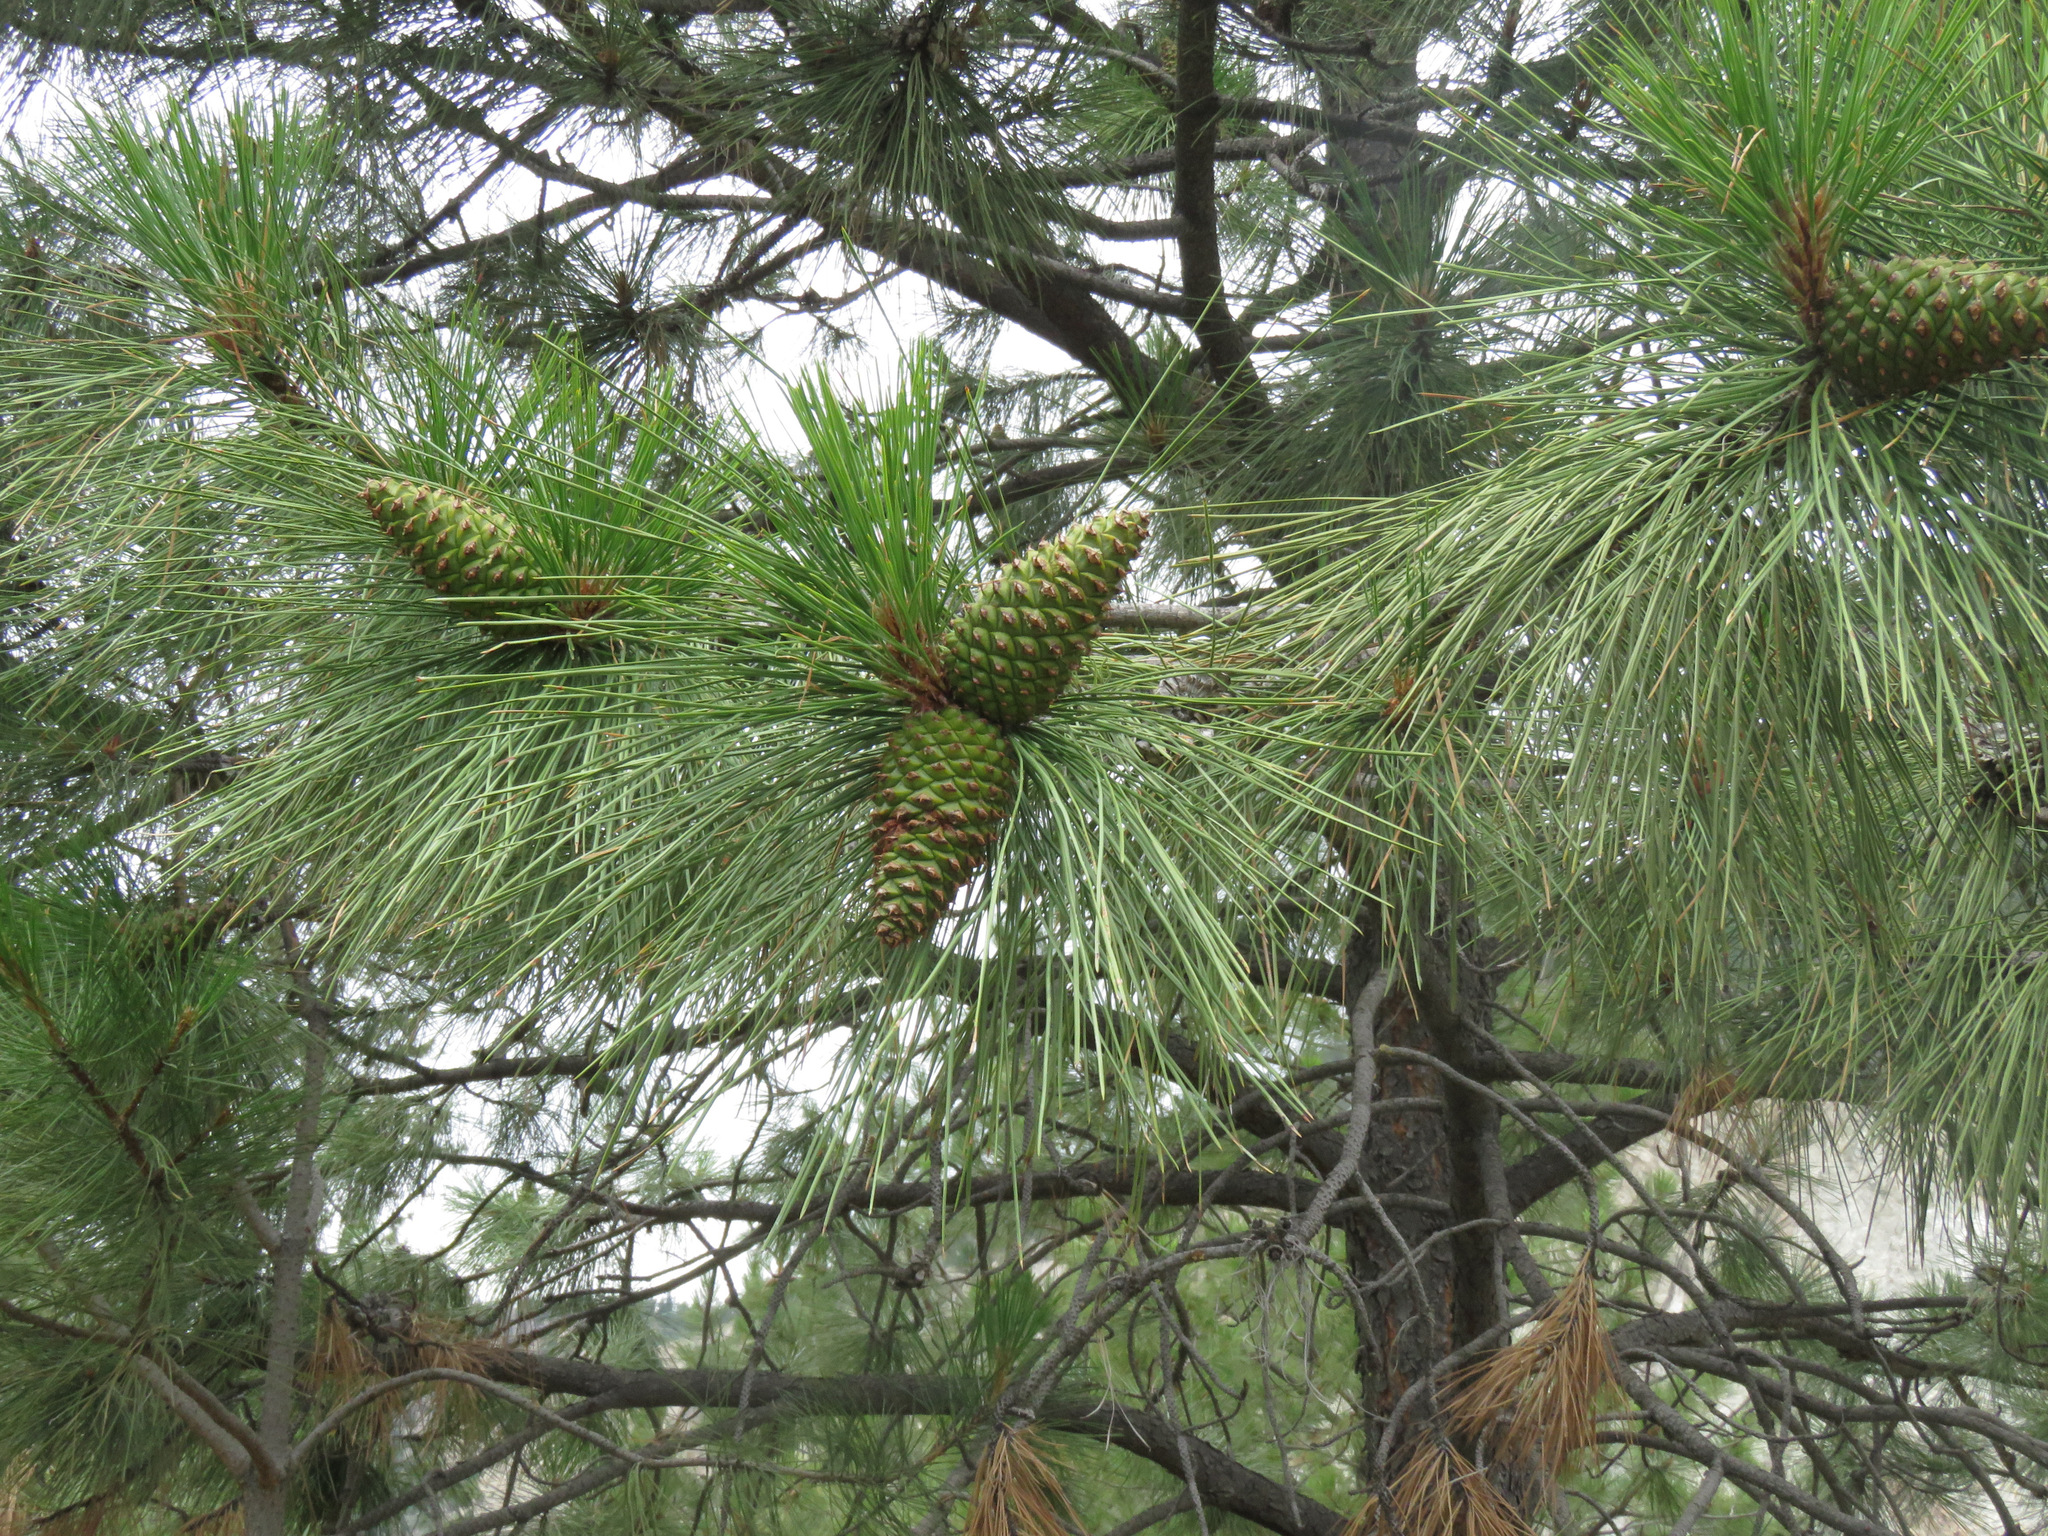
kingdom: Plantae
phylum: Tracheophyta
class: Pinopsida
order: Pinales
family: Pinaceae
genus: Pinus
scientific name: Pinus ponderosa
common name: Western yellow-pine
